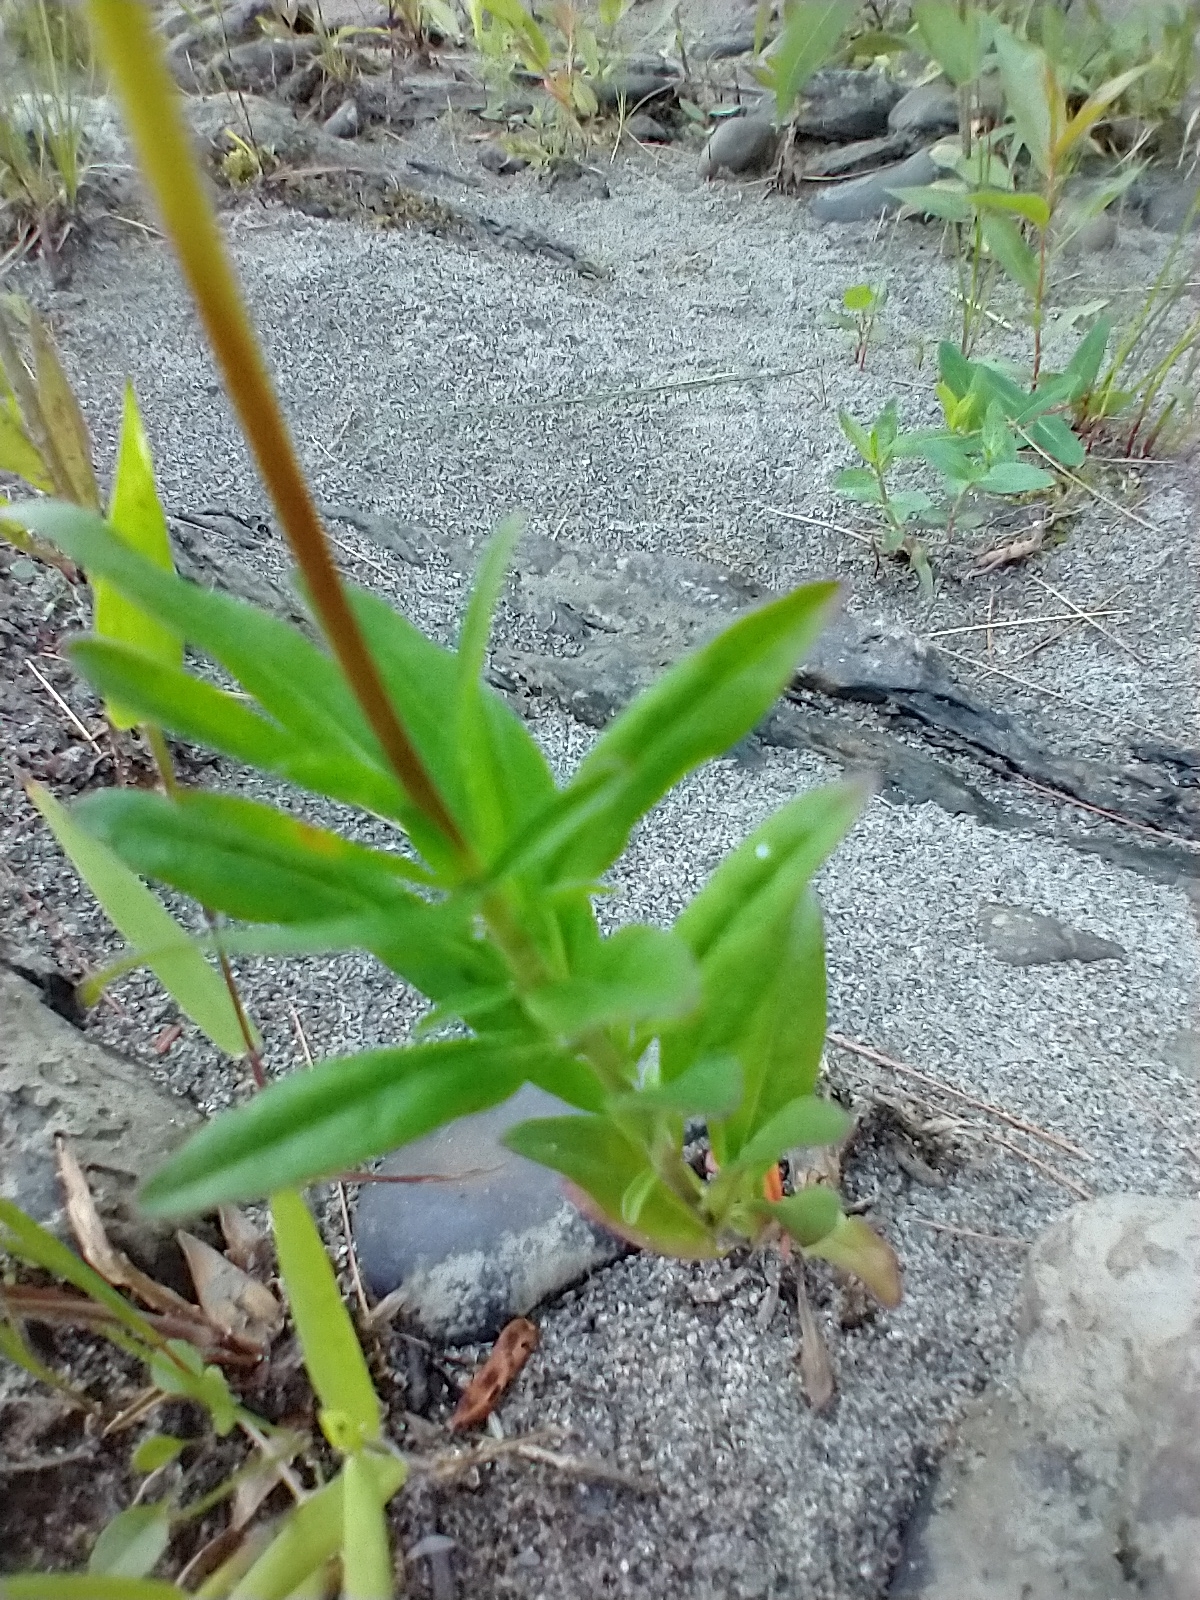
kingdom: Plantae
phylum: Tracheophyta
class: Magnoliopsida
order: Myrtales
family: Onagraceae
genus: Oenothera
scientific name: Oenothera perennis
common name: Small sundrops
